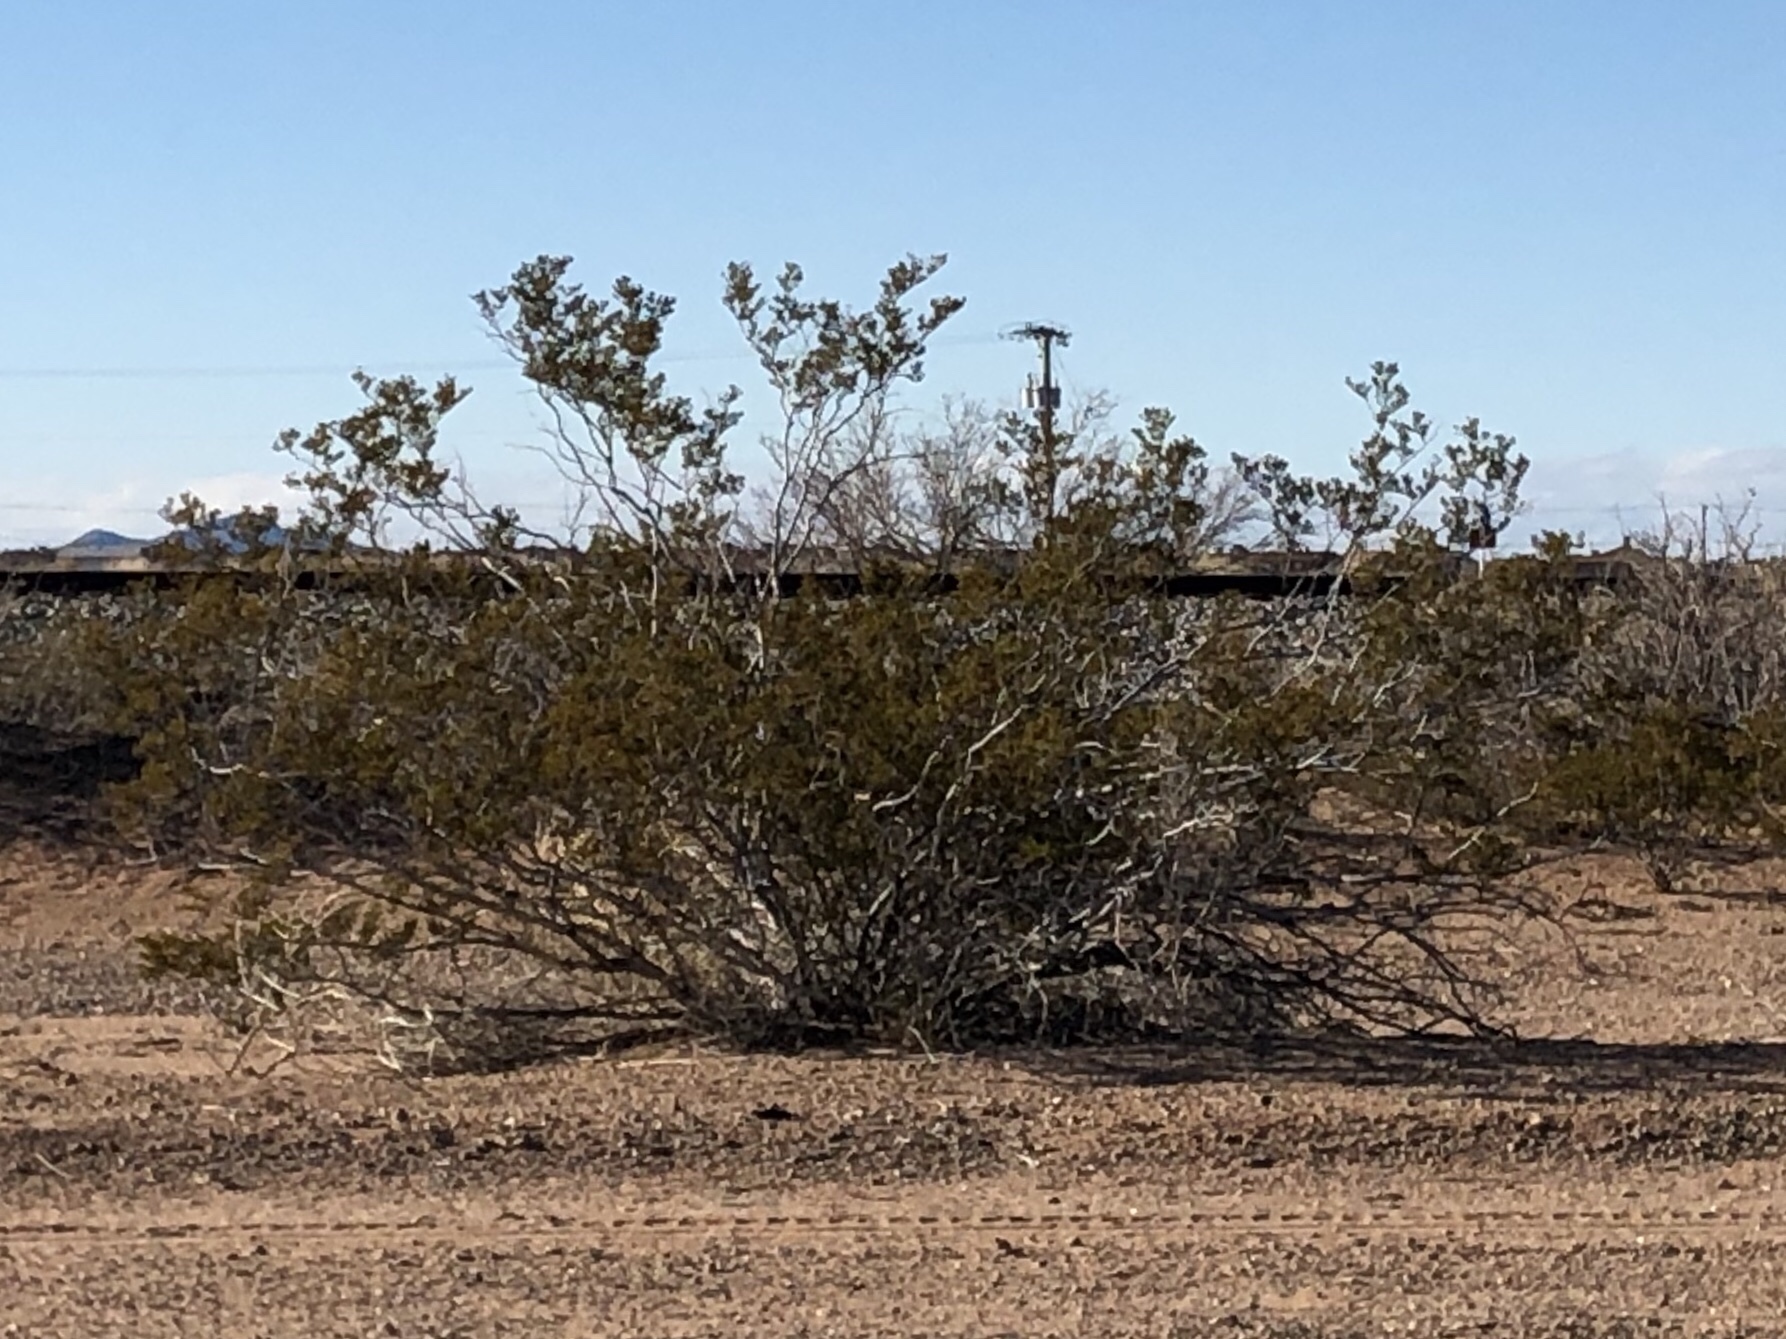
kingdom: Plantae
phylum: Tracheophyta
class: Magnoliopsida
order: Zygophyllales
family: Zygophyllaceae
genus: Larrea
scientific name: Larrea tridentata
